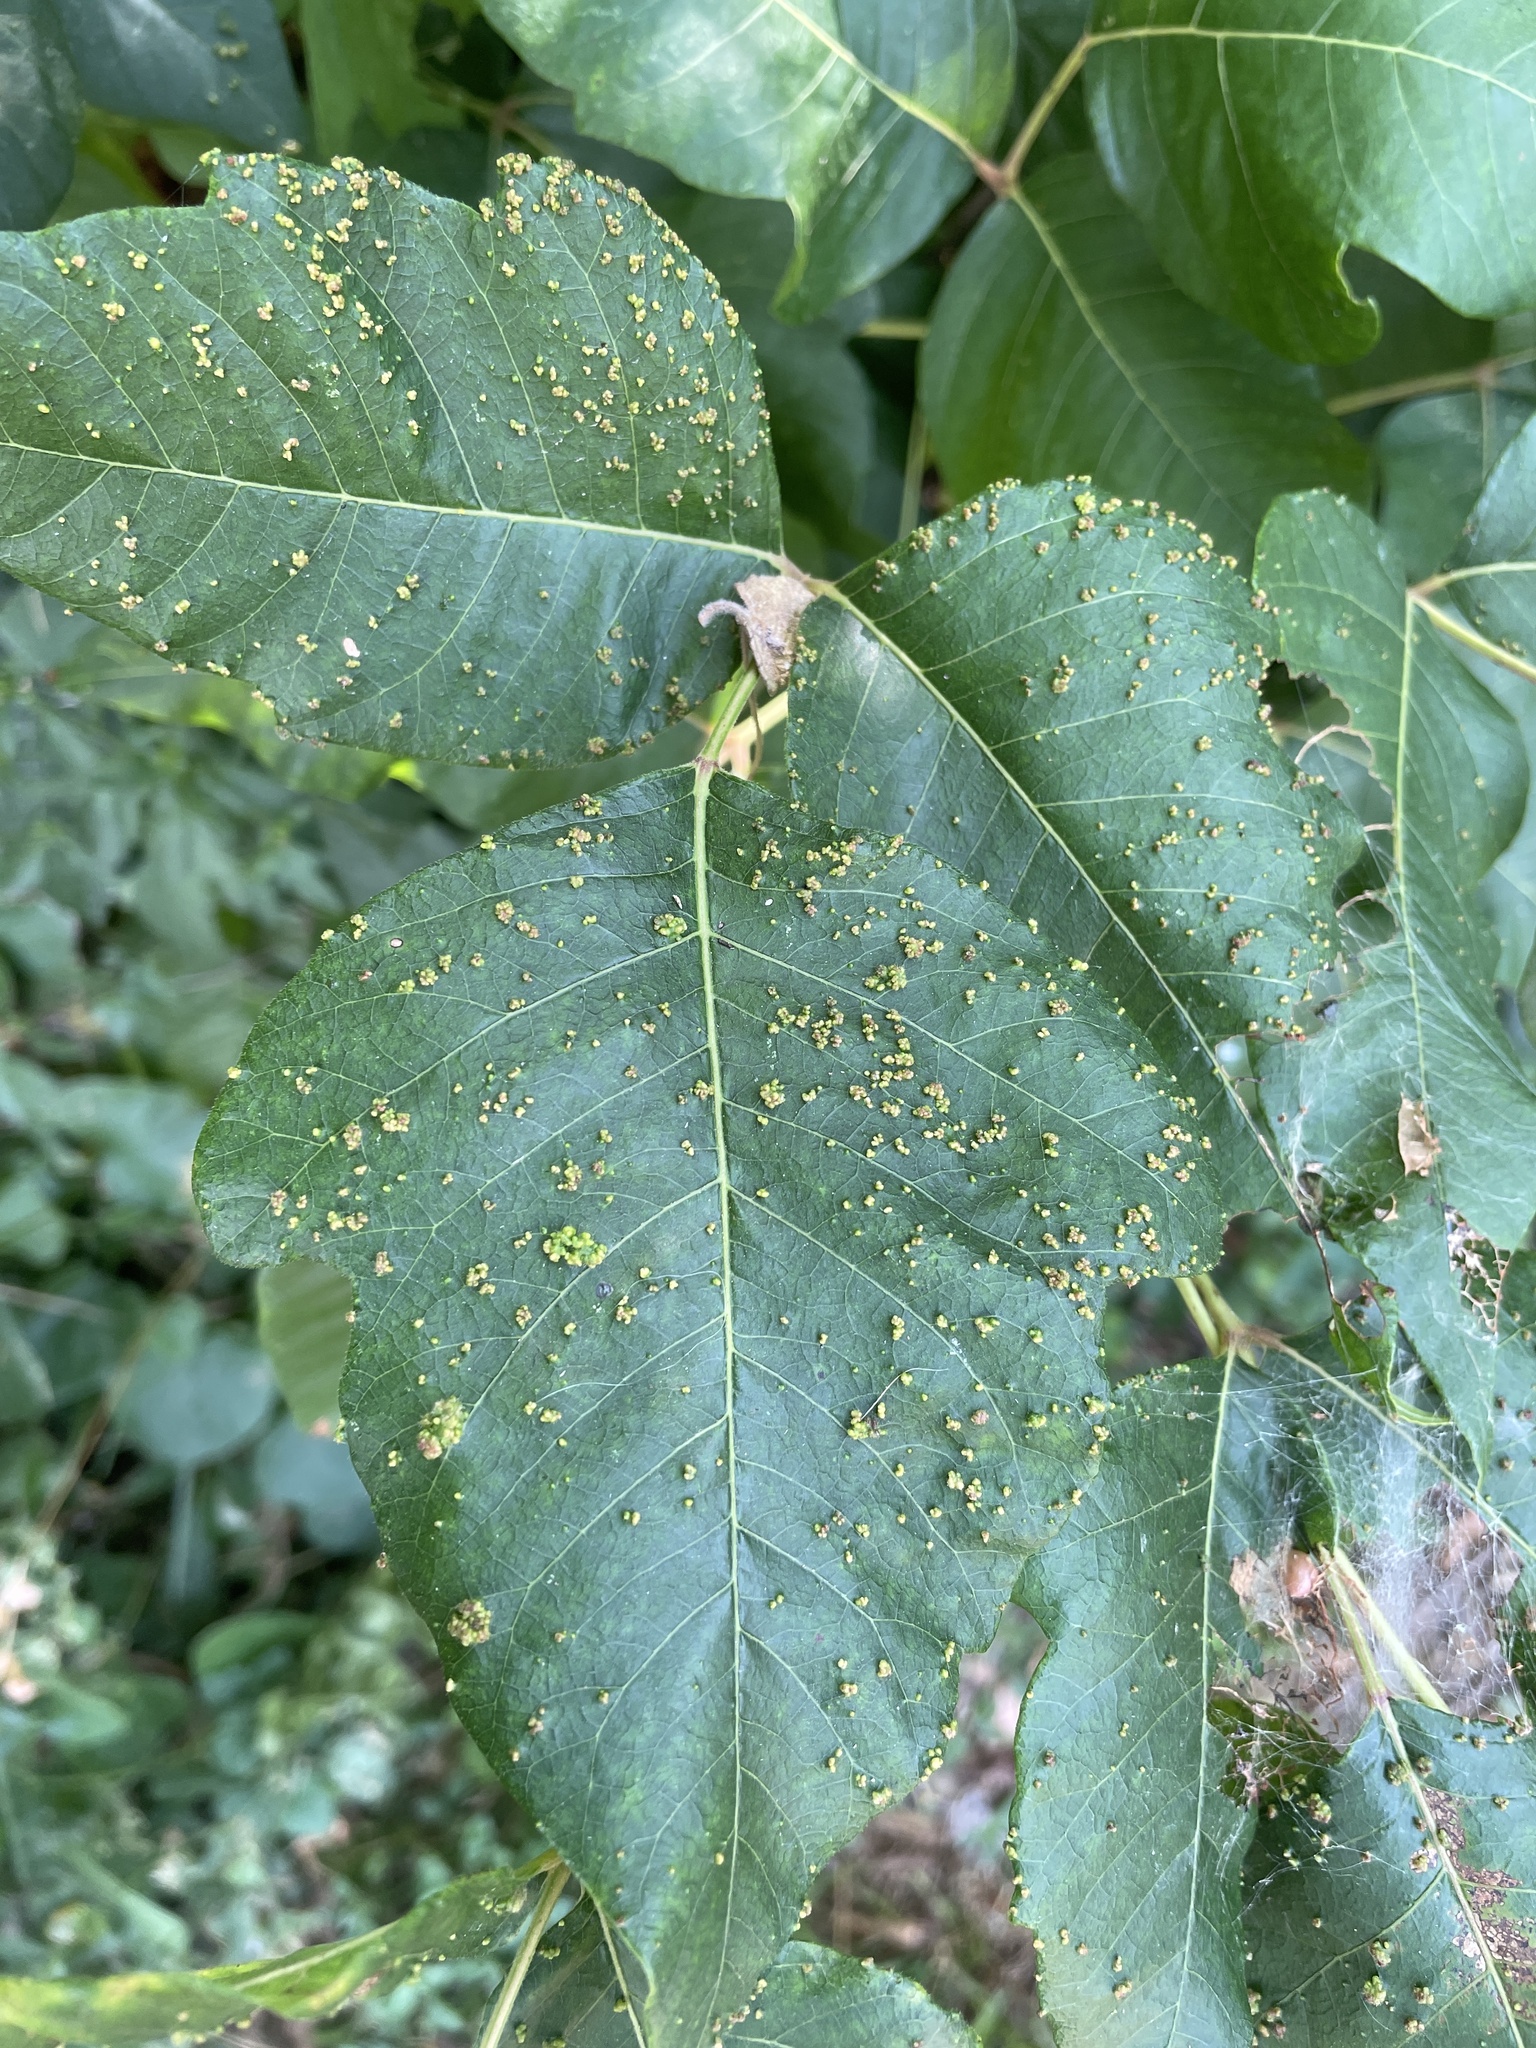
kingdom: Animalia
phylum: Arthropoda
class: Arachnida
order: Trombidiformes
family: Eriophyidae
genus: Aculops
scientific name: Aculops
